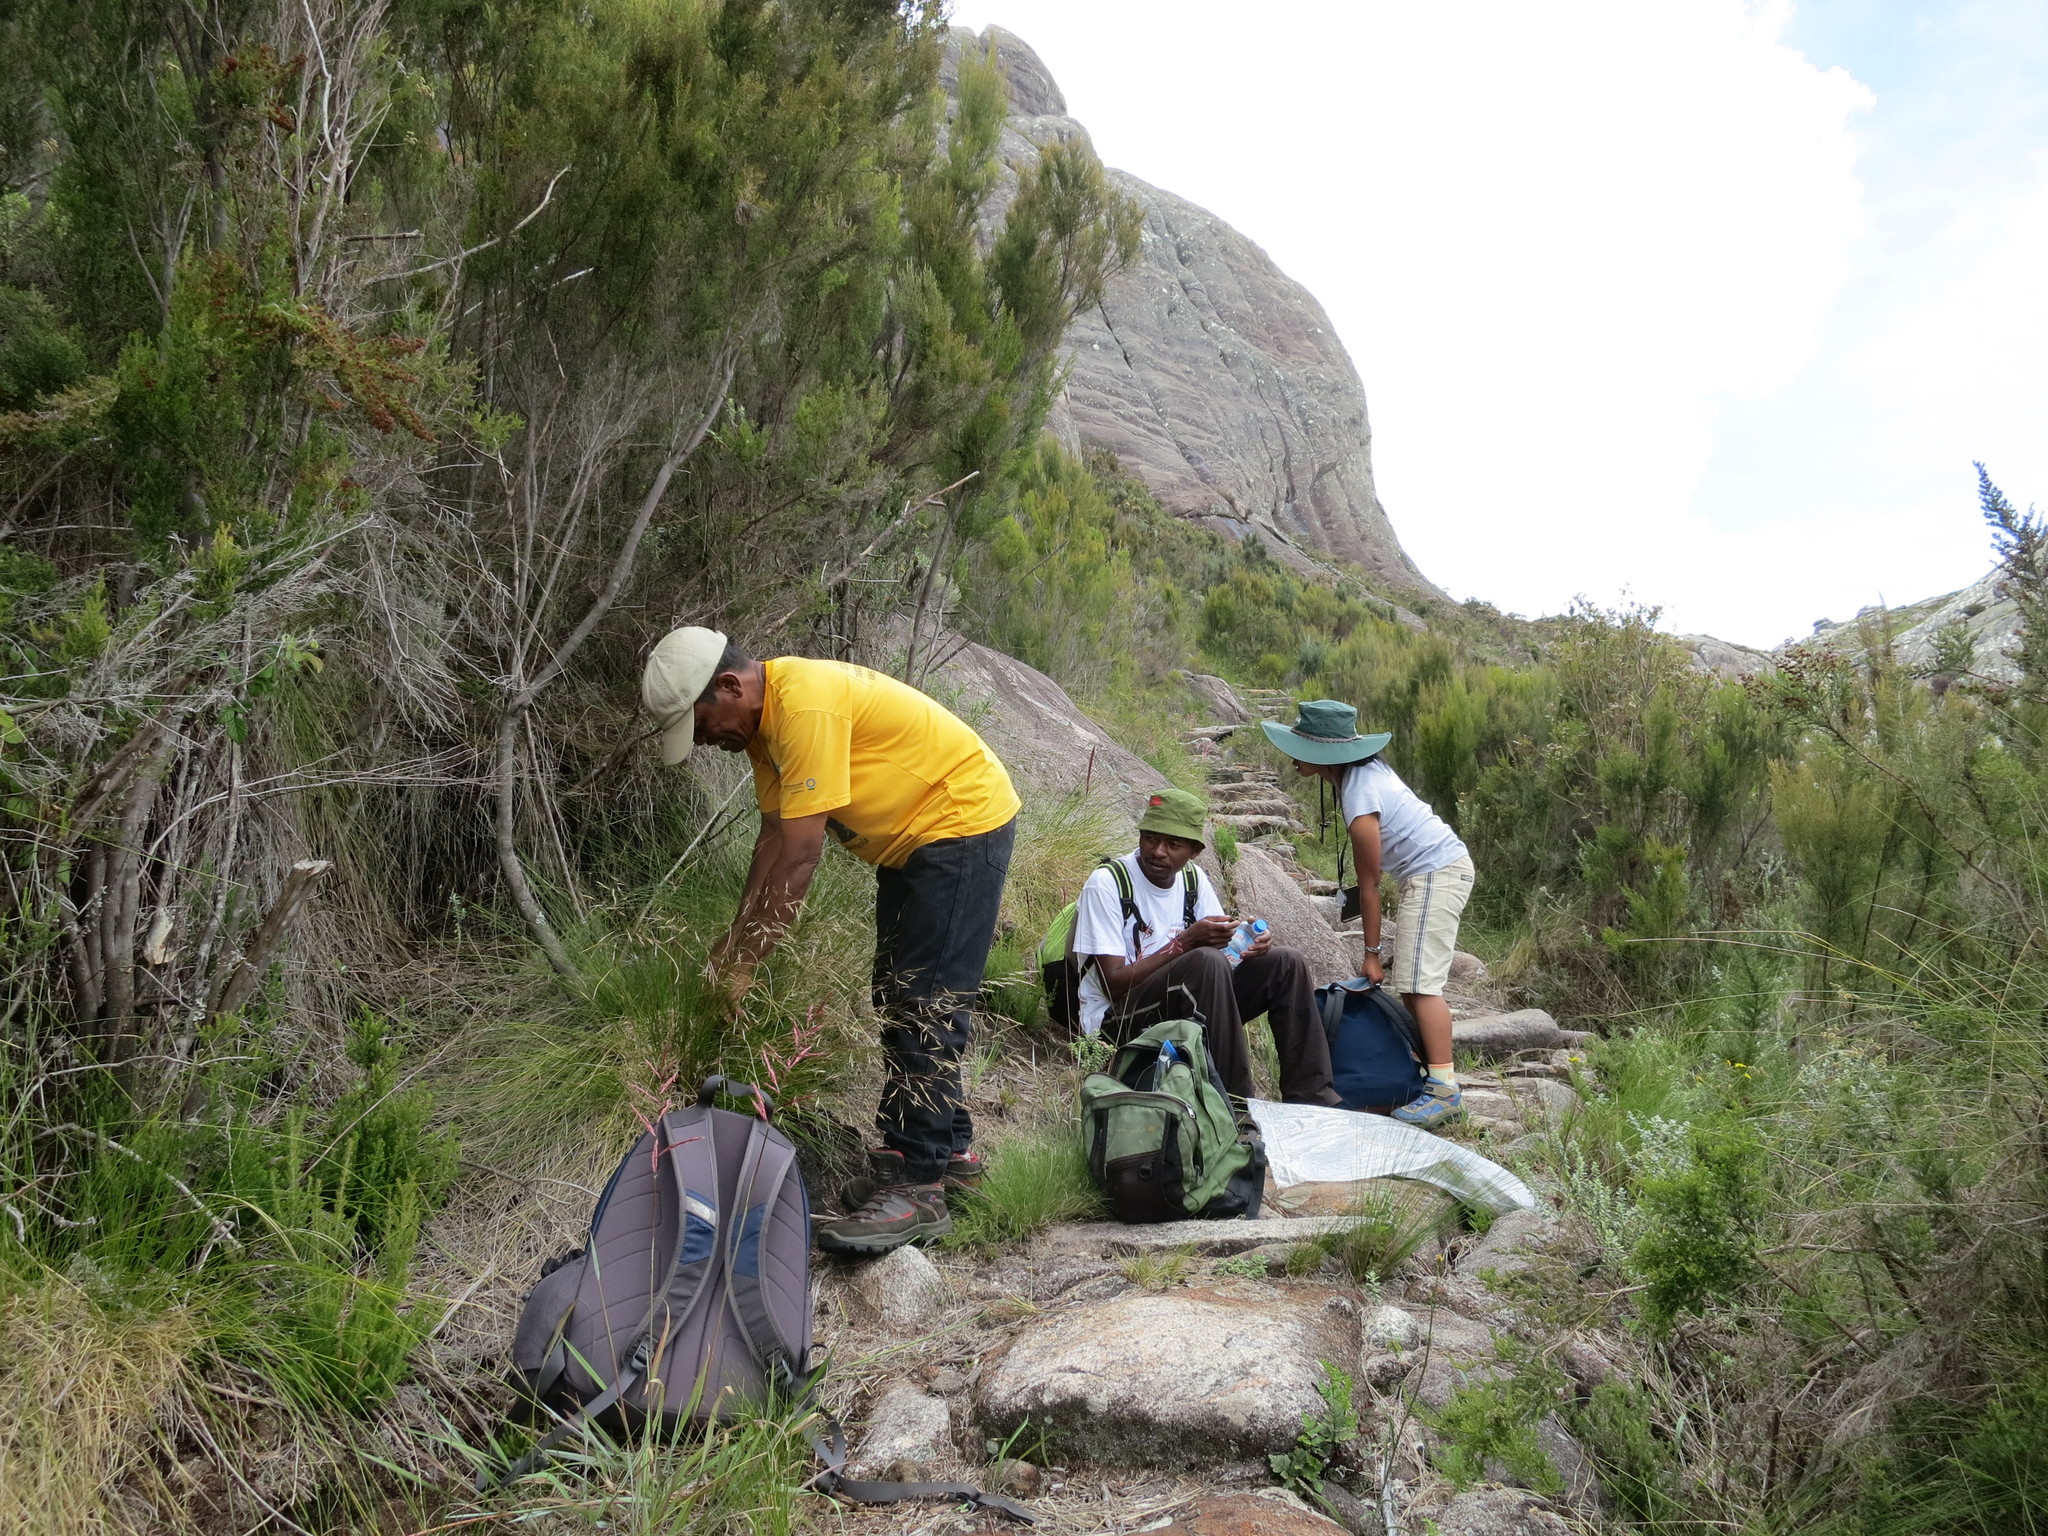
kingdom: Plantae
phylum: Tracheophyta
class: Liliopsida
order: Poales
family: Poaceae
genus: Merxmuellera
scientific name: Merxmuellera ambalavaoensis
